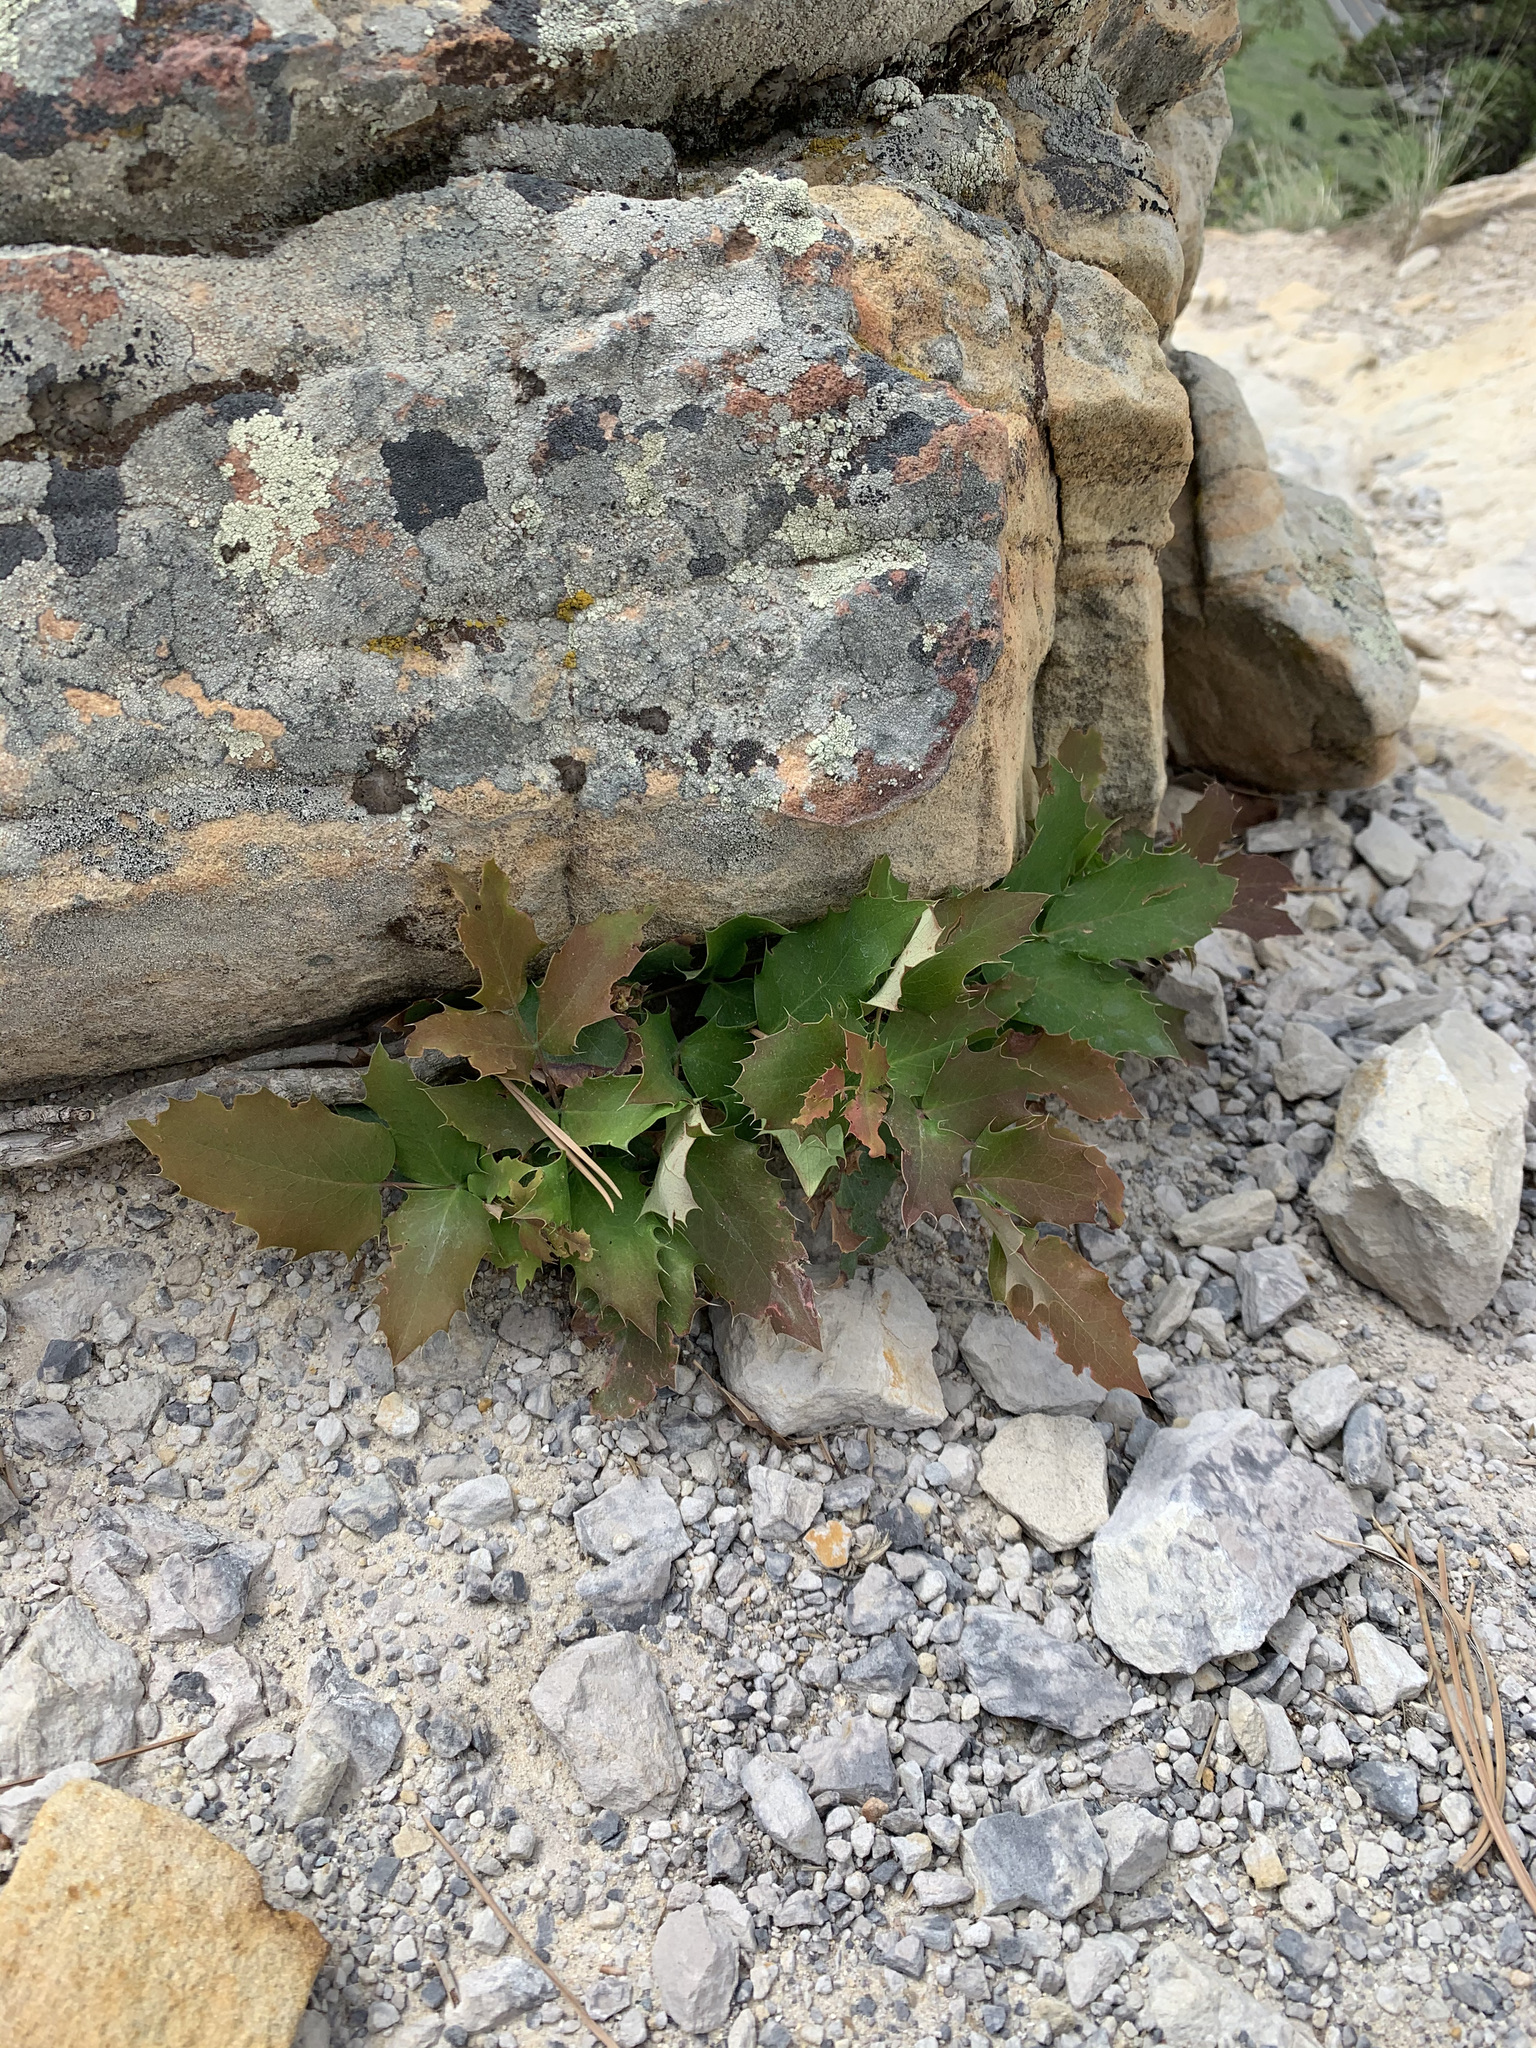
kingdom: Plantae
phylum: Tracheophyta
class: Magnoliopsida
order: Ranunculales
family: Berberidaceae
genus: Mahonia
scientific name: Mahonia repens
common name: Creeping oregon-grape
